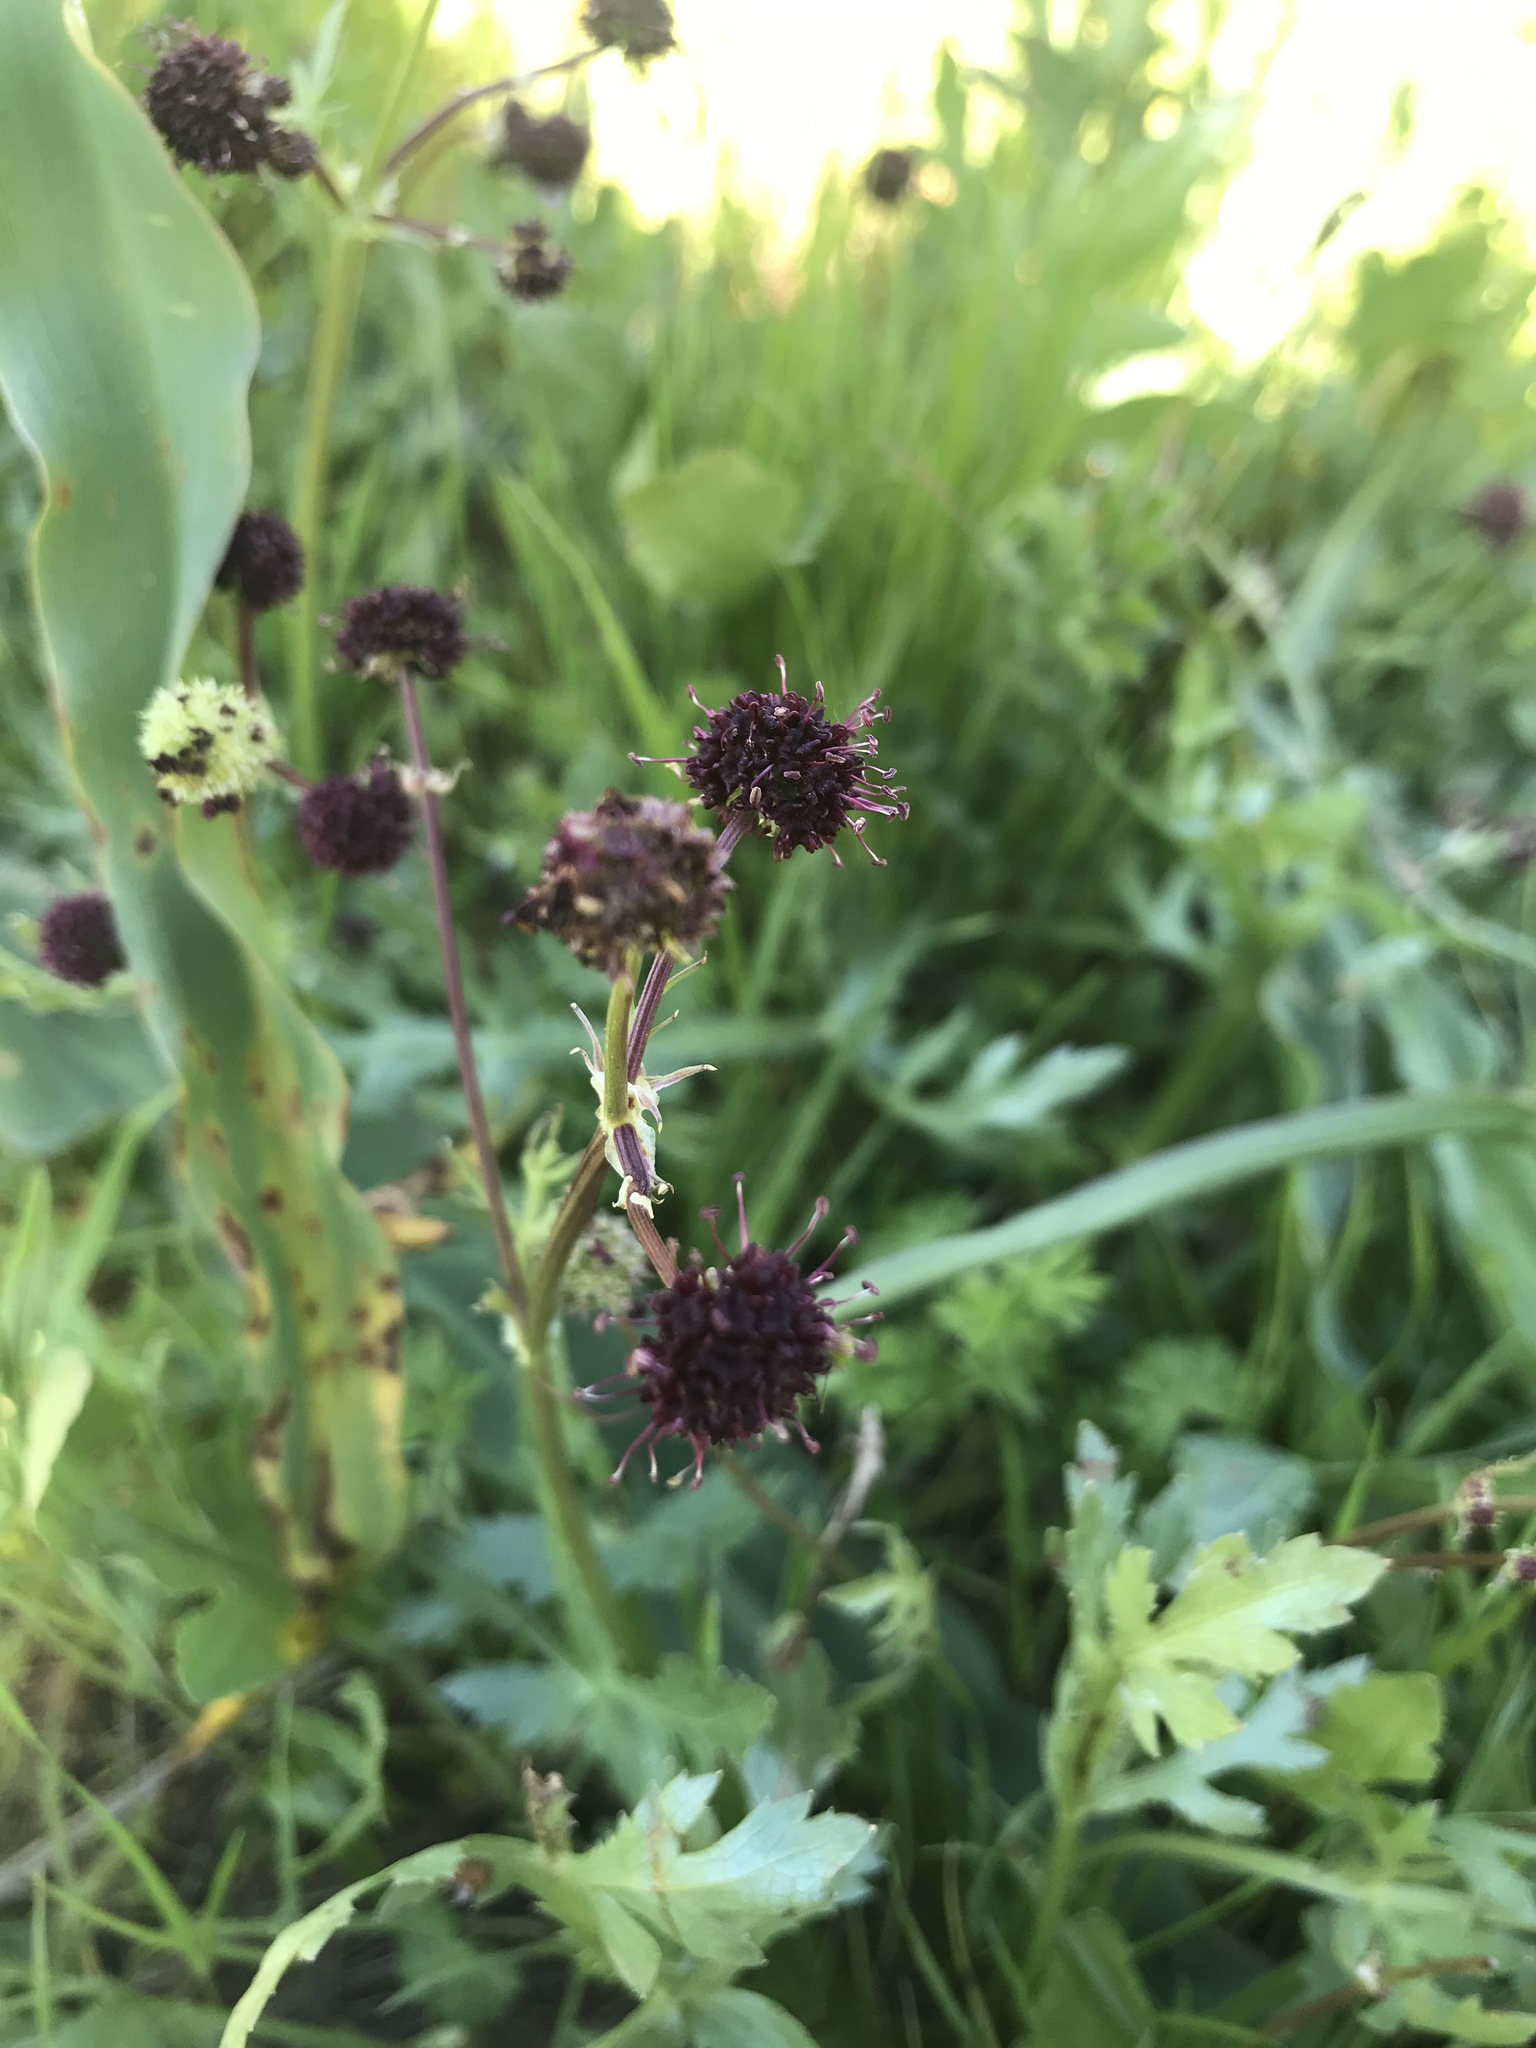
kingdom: Plantae
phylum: Tracheophyta
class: Magnoliopsida
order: Apiales
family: Apiaceae
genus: Sanicula
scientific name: Sanicula bipinnatifida
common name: Shoe-buttons
